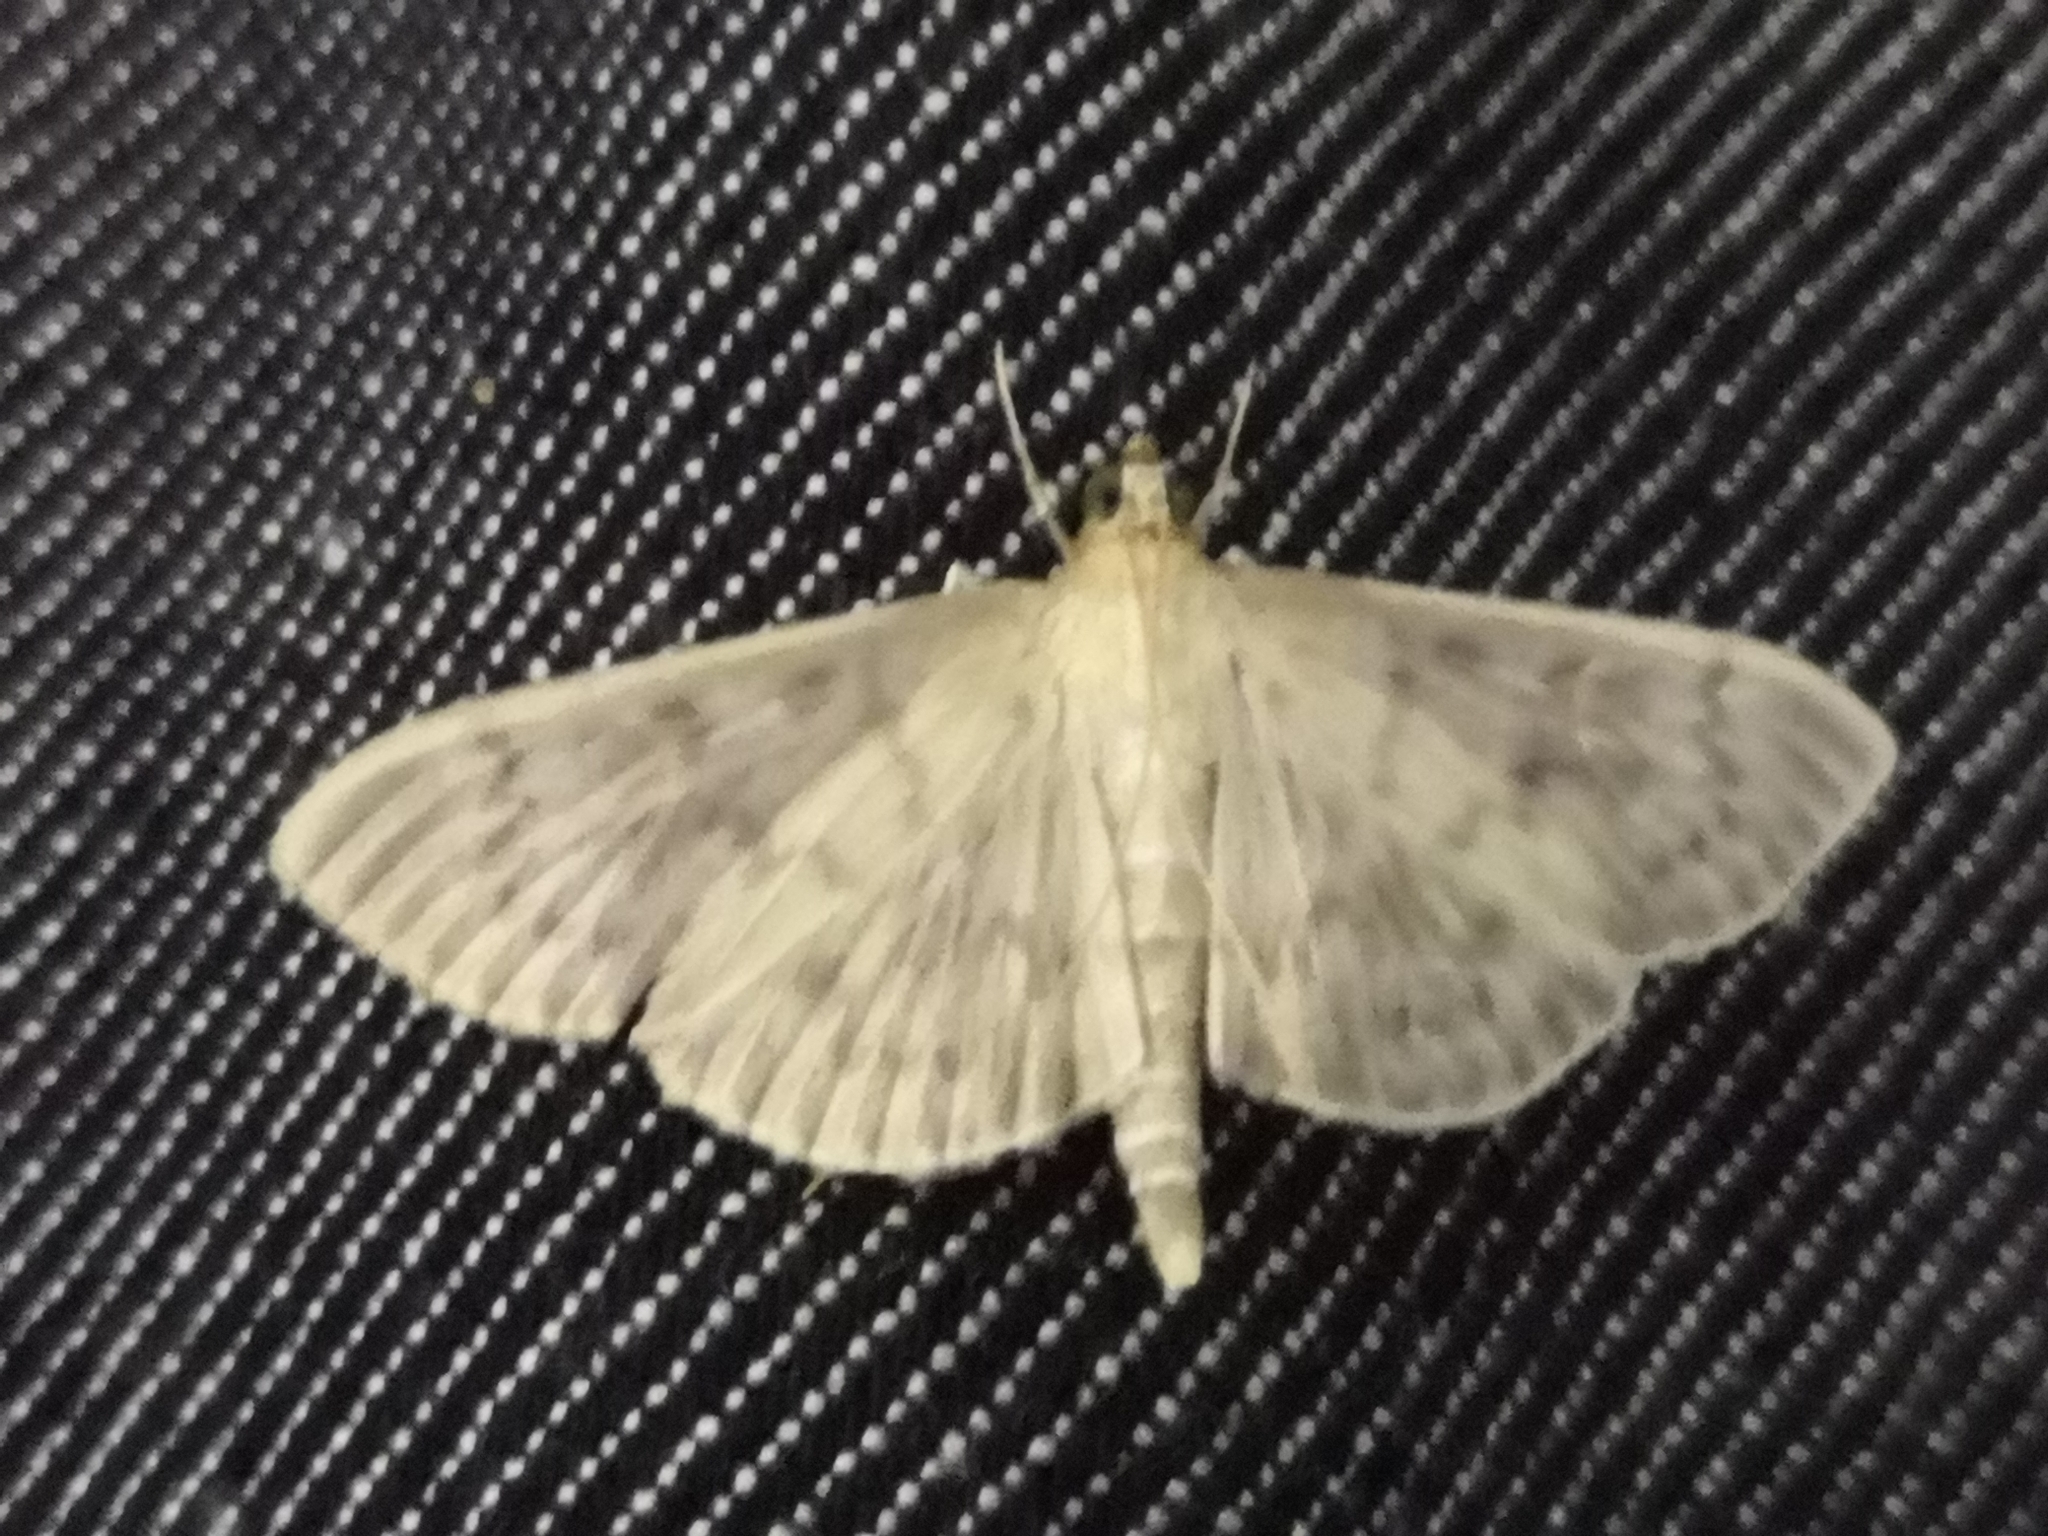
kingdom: Animalia
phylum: Arthropoda
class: Insecta
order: Lepidoptera
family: Crambidae
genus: Patania
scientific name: Patania ruralis
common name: Mother of pearl
